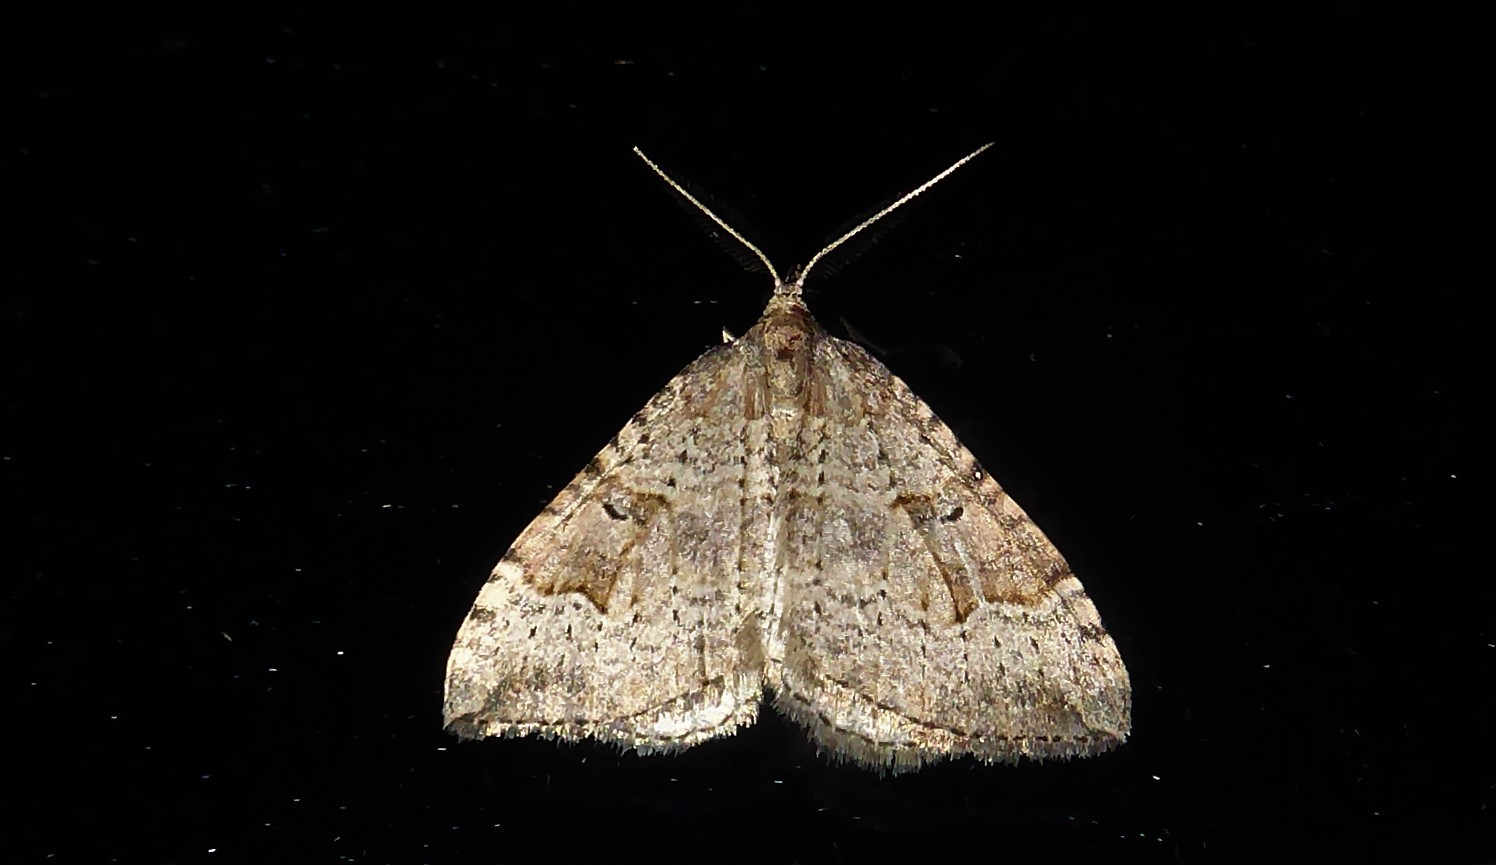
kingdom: Animalia
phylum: Arthropoda
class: Insecta
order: Lepidoptera
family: Geometridae
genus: Epyaxa
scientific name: Epyaxa rosearia
